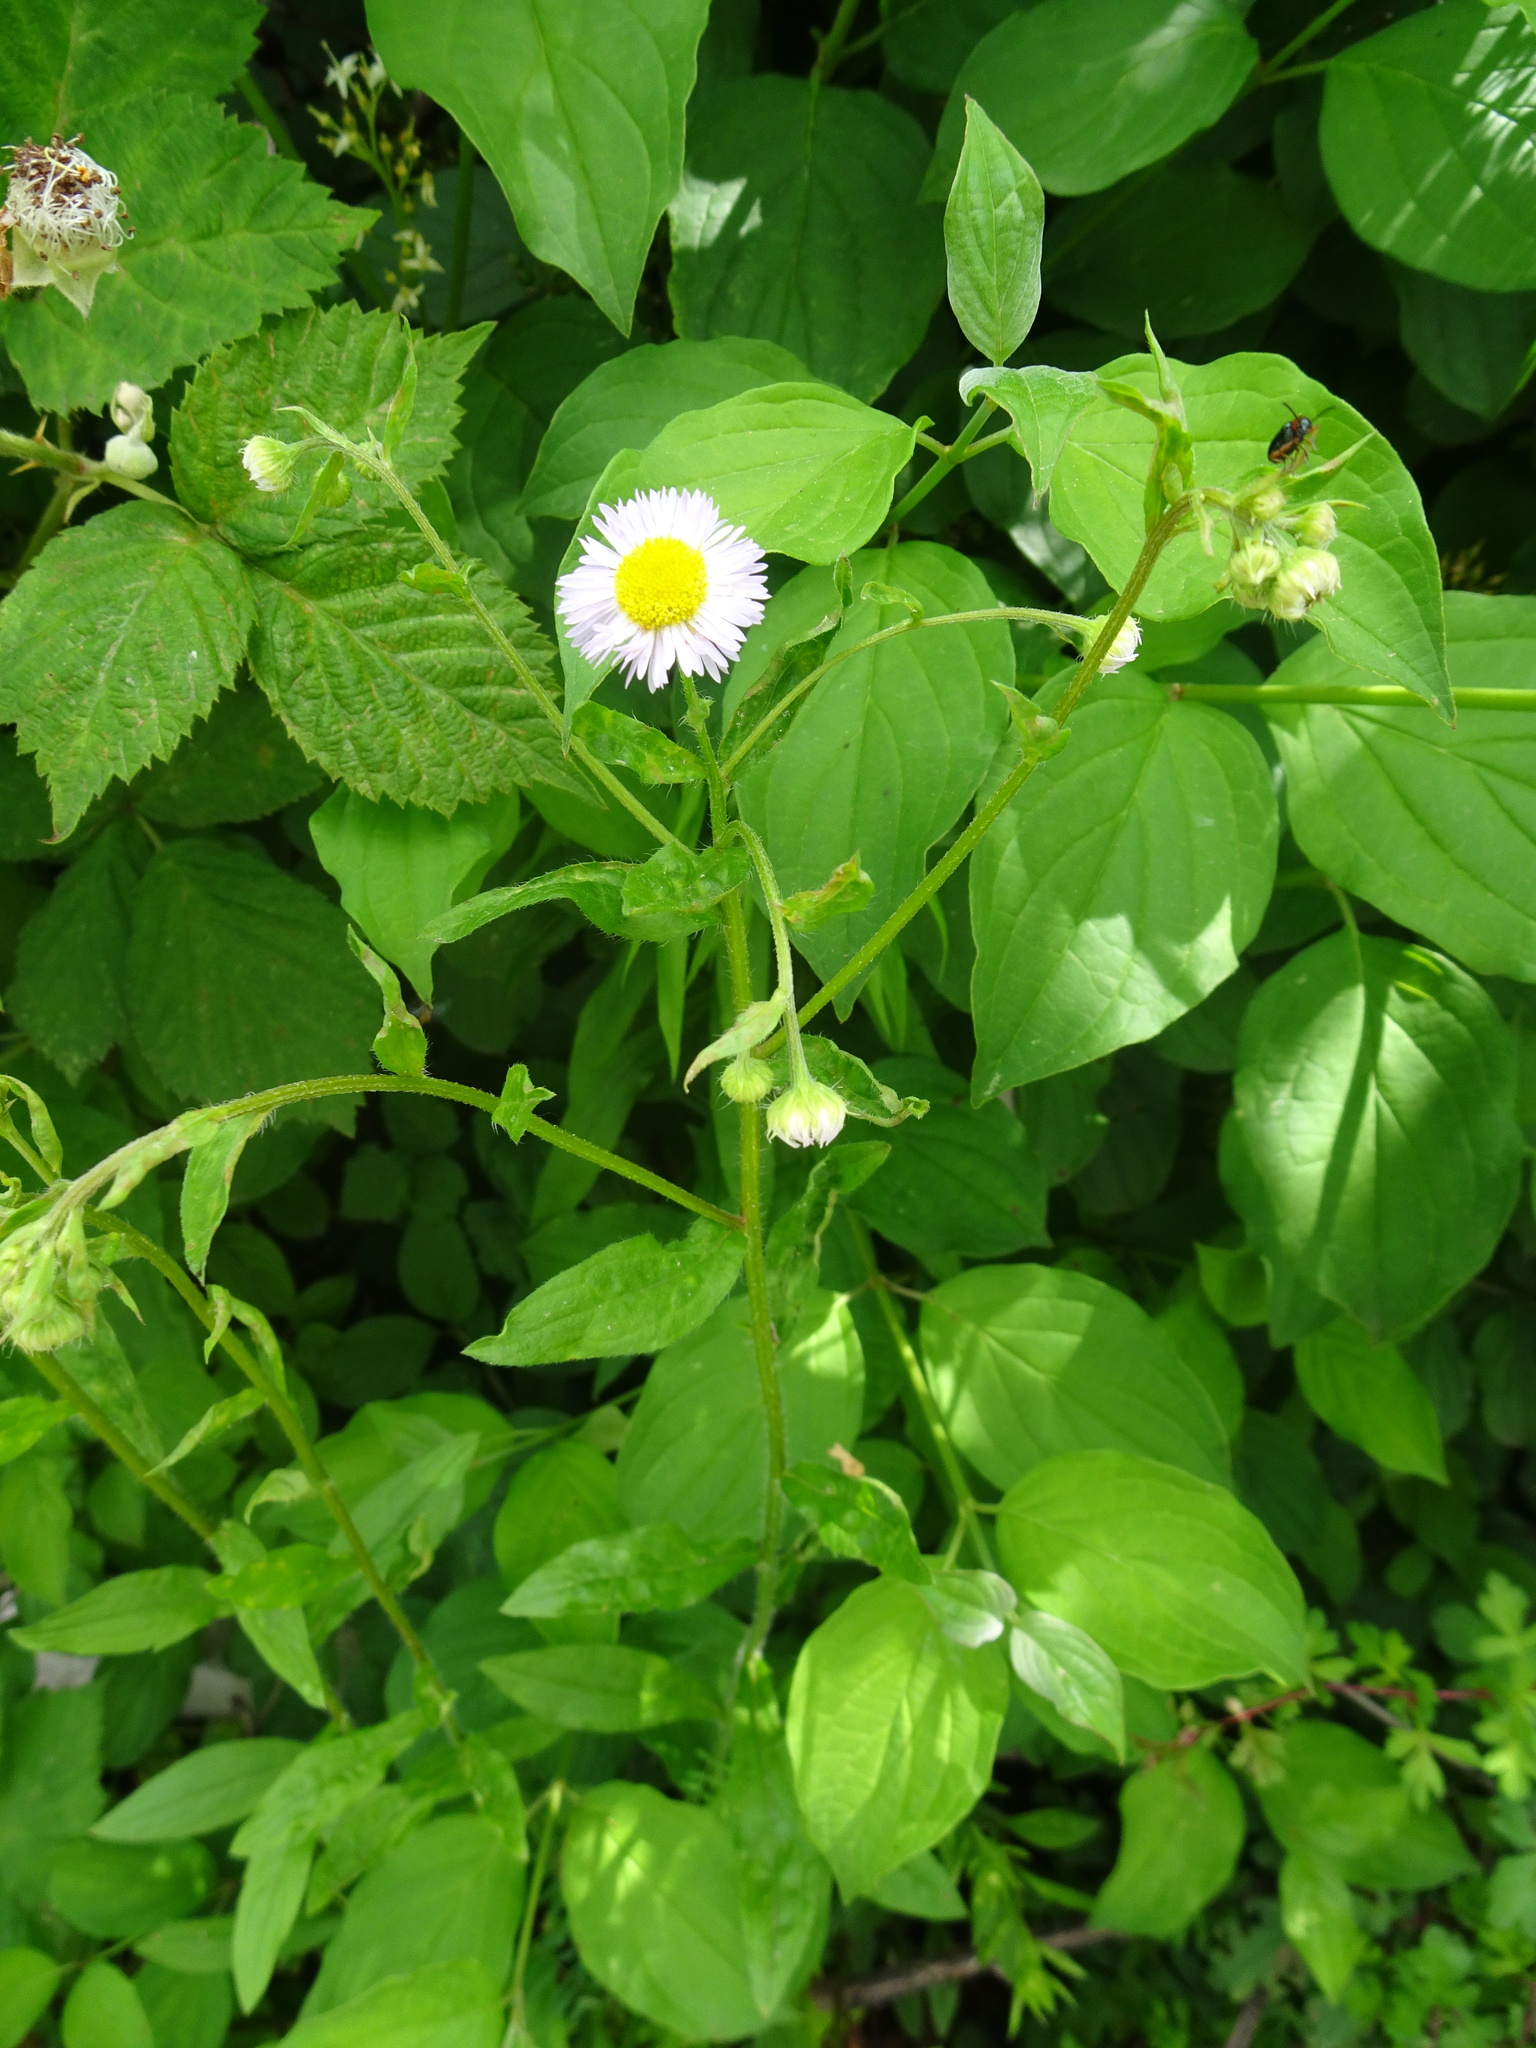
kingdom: Plantae
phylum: Tracheophyta
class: Magnoliopsida
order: Asterales
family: Asteraceae
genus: Erigeron
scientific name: Erigeron annuus
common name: Tall fleabane
